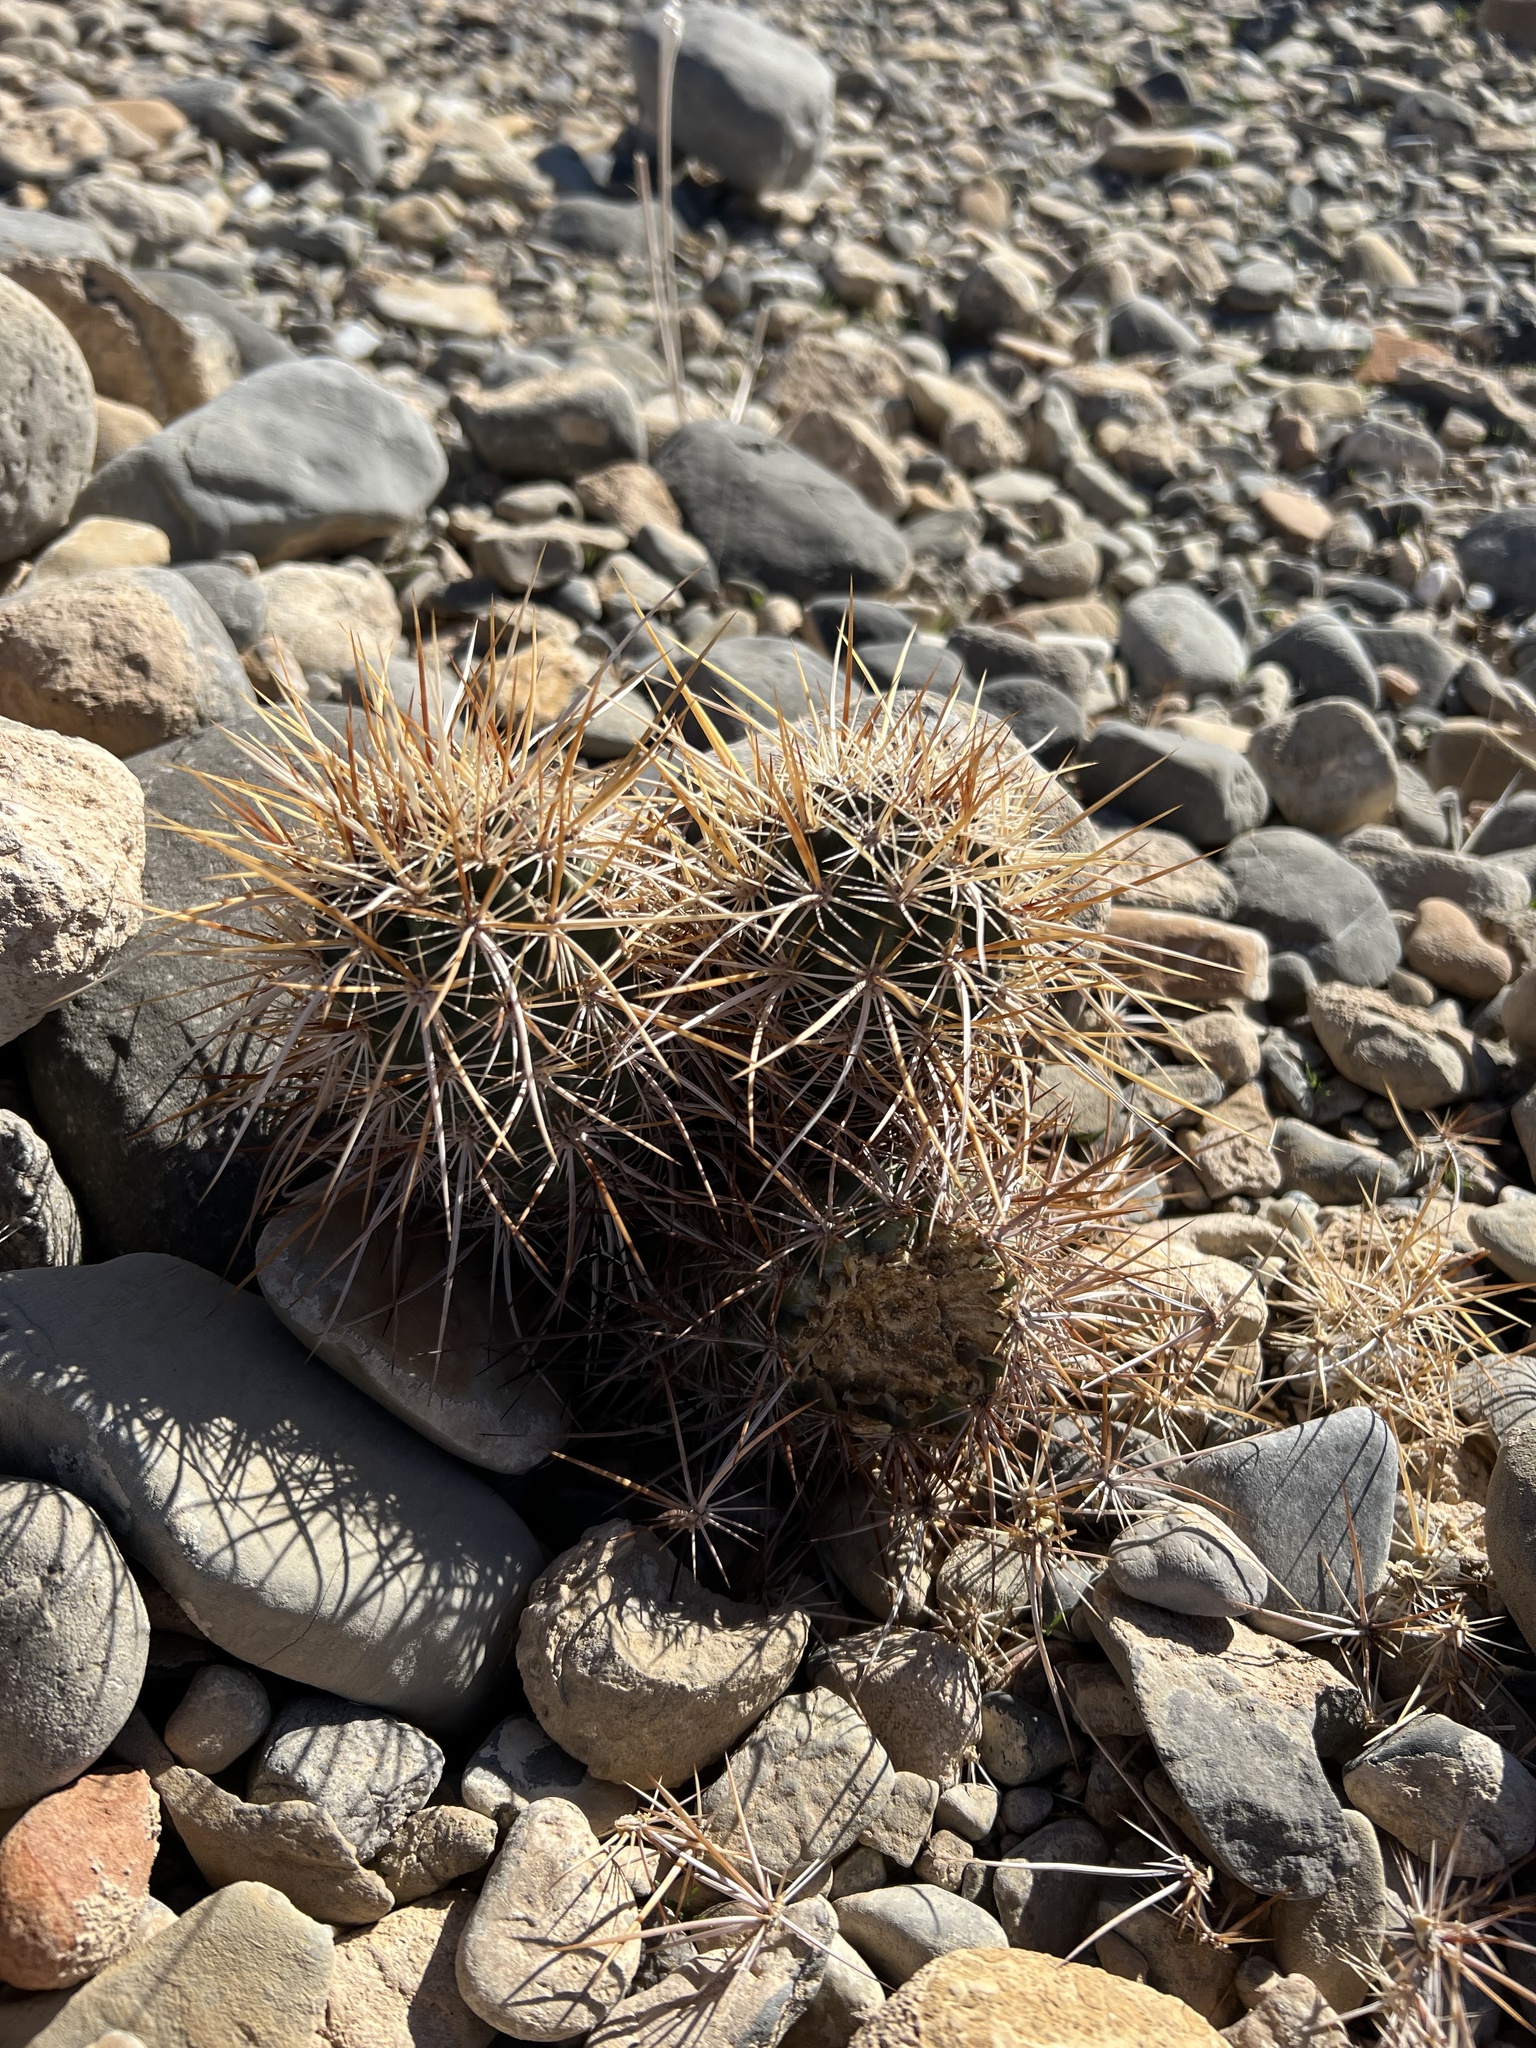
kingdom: Plantae
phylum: Tracheophyta
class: Magnoliopsida
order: Caryophyllales
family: Cactaceae
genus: Echinocereus
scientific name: Echinocereus engelmannii
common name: Engelmann's hedgehog cactus
